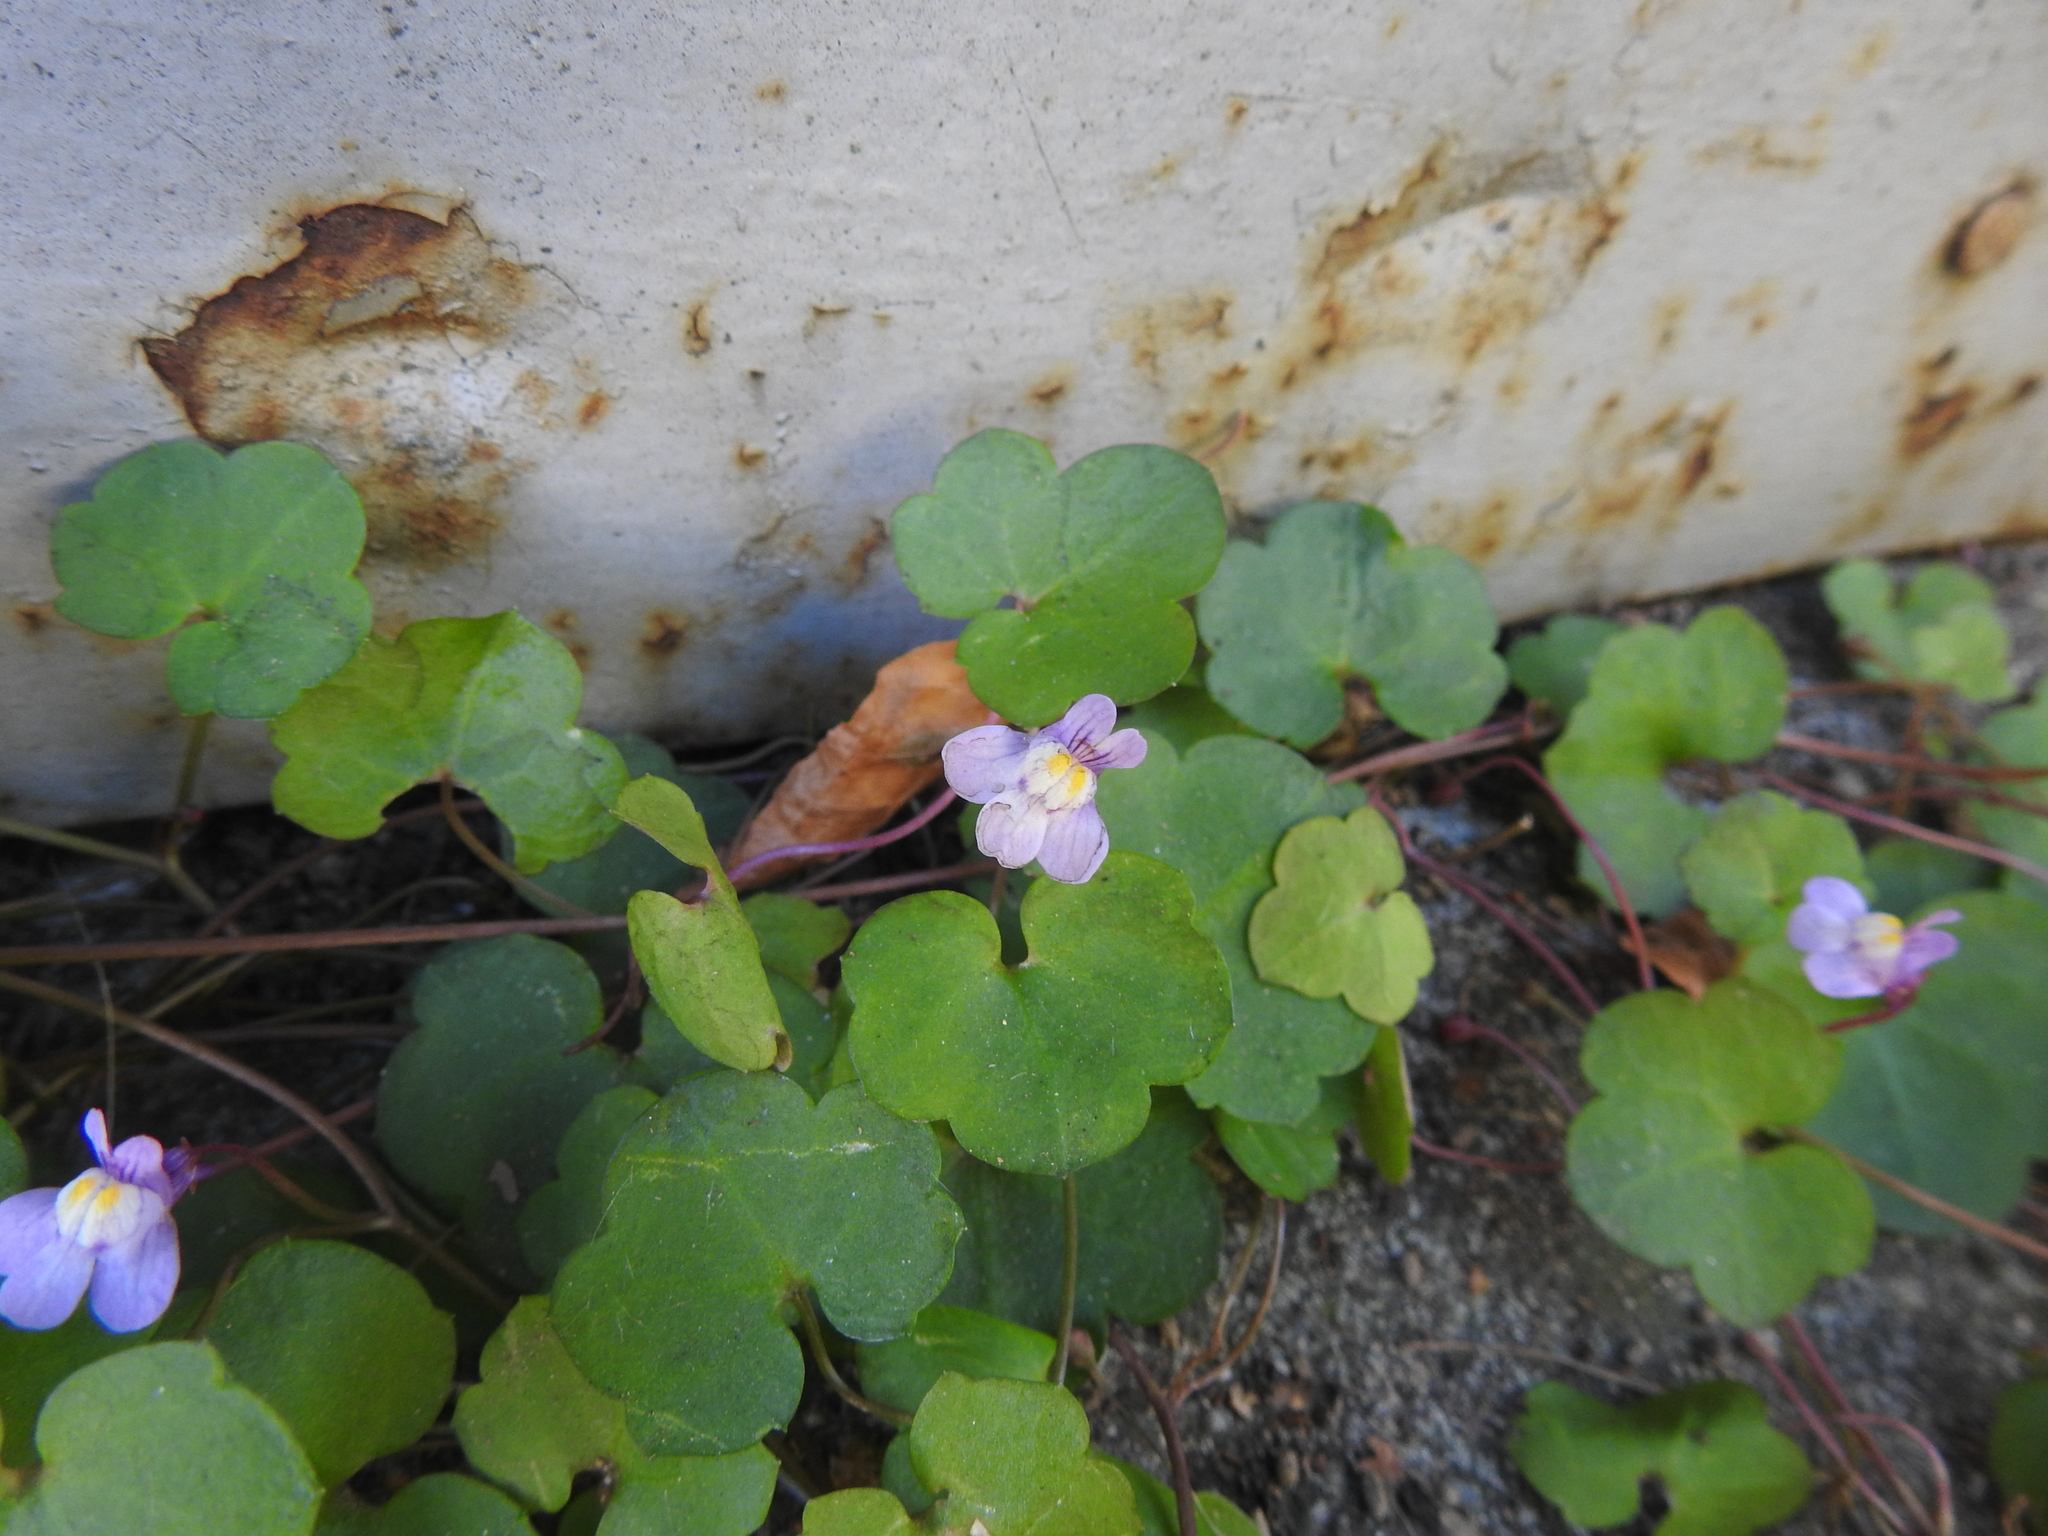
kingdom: Plantae
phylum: Tracheophyta
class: Magnoliopsida
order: Lamiales
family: Plantaginaceae
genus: Cymbalaria
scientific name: Cymbalaria muralis
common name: Ivy-leaved toadflax
